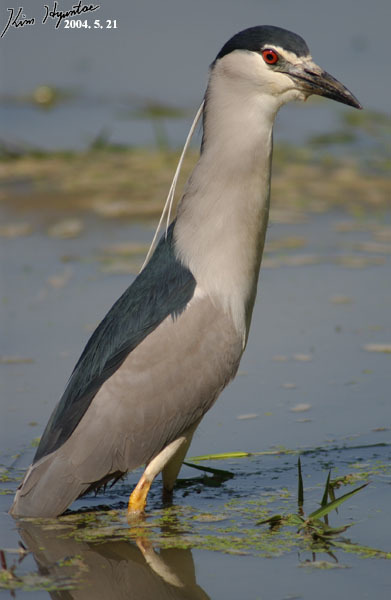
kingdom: Animalia
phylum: Chordata
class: Aves
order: Pelecaniformes
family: Ardeidae
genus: Nycticorax
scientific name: Nycticorax nycticorax
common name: Black-crowned night heron
